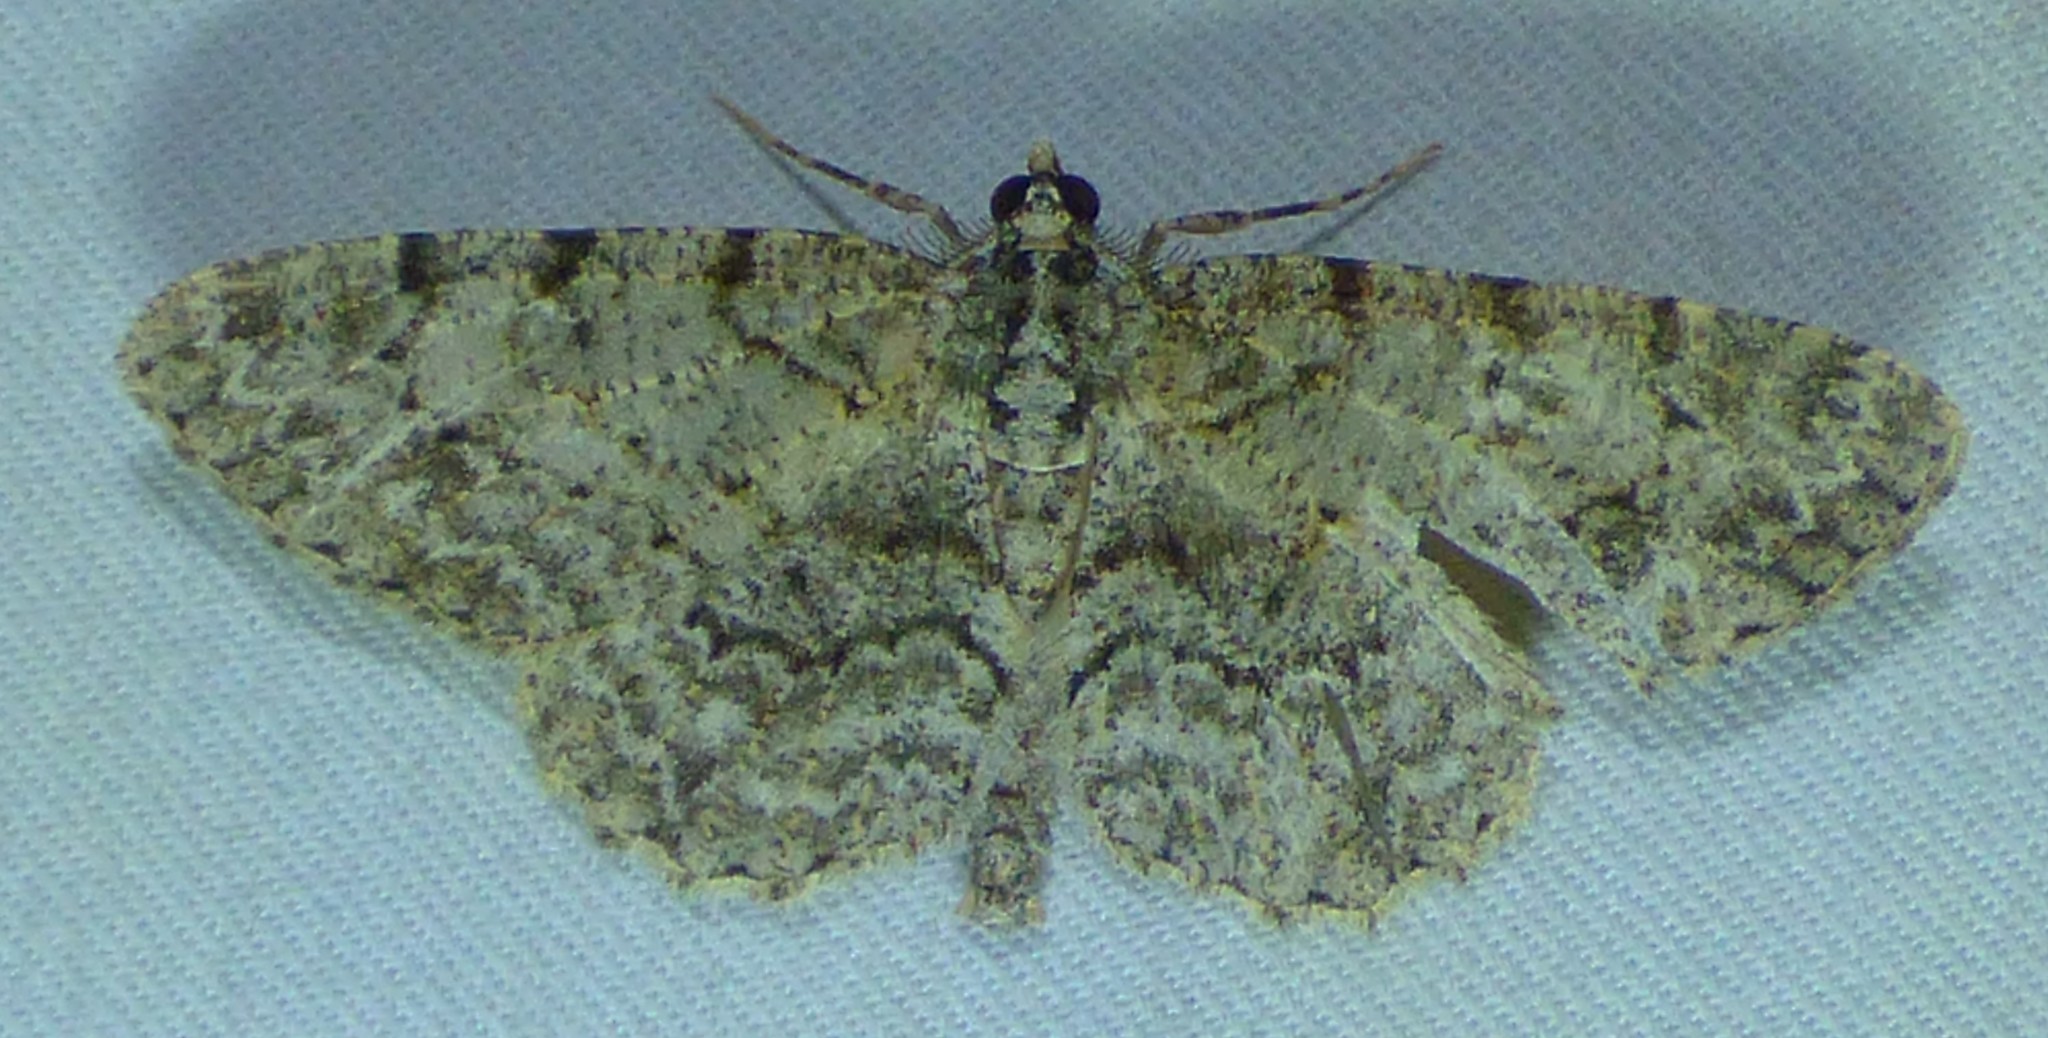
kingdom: Animalia
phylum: Arthropoda
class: Insecta
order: Lepidoptera
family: Geometridae
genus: Protoboarmia
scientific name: Protoboarmia porcelaria
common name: Porcelain gray
